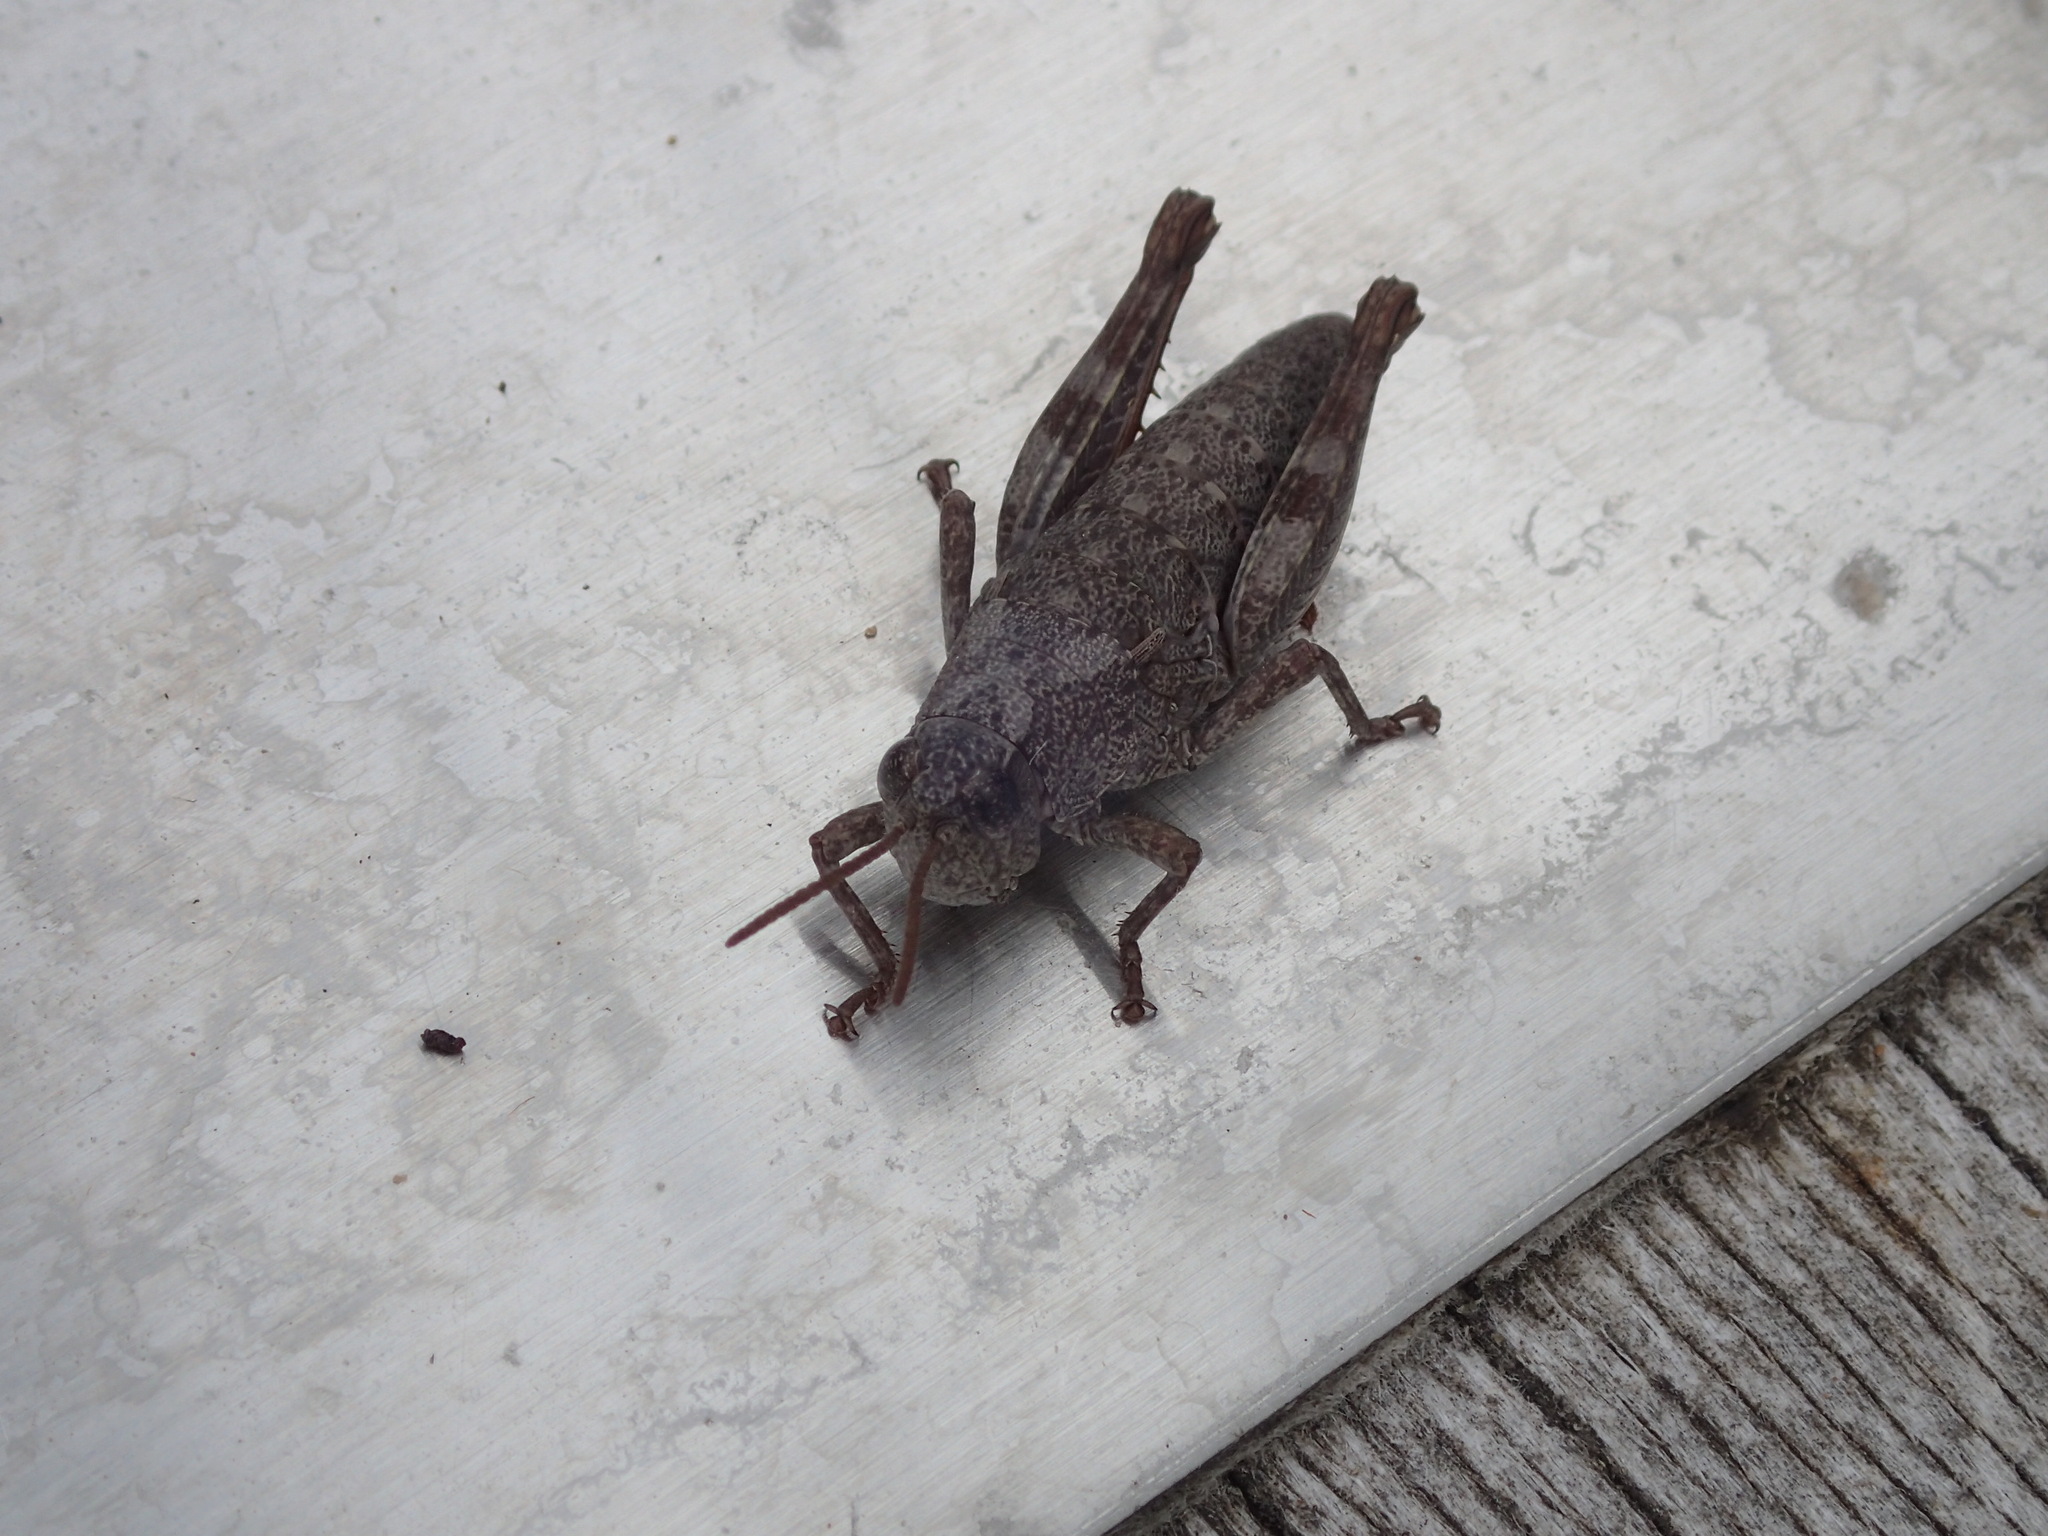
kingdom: Animalia
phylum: Arthropoda
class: Insecta
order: Orthoptera
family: Acrididae
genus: Tasmaniacris
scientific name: Tasmaniacris tasmaniensis
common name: Tasmanian grasshopper
